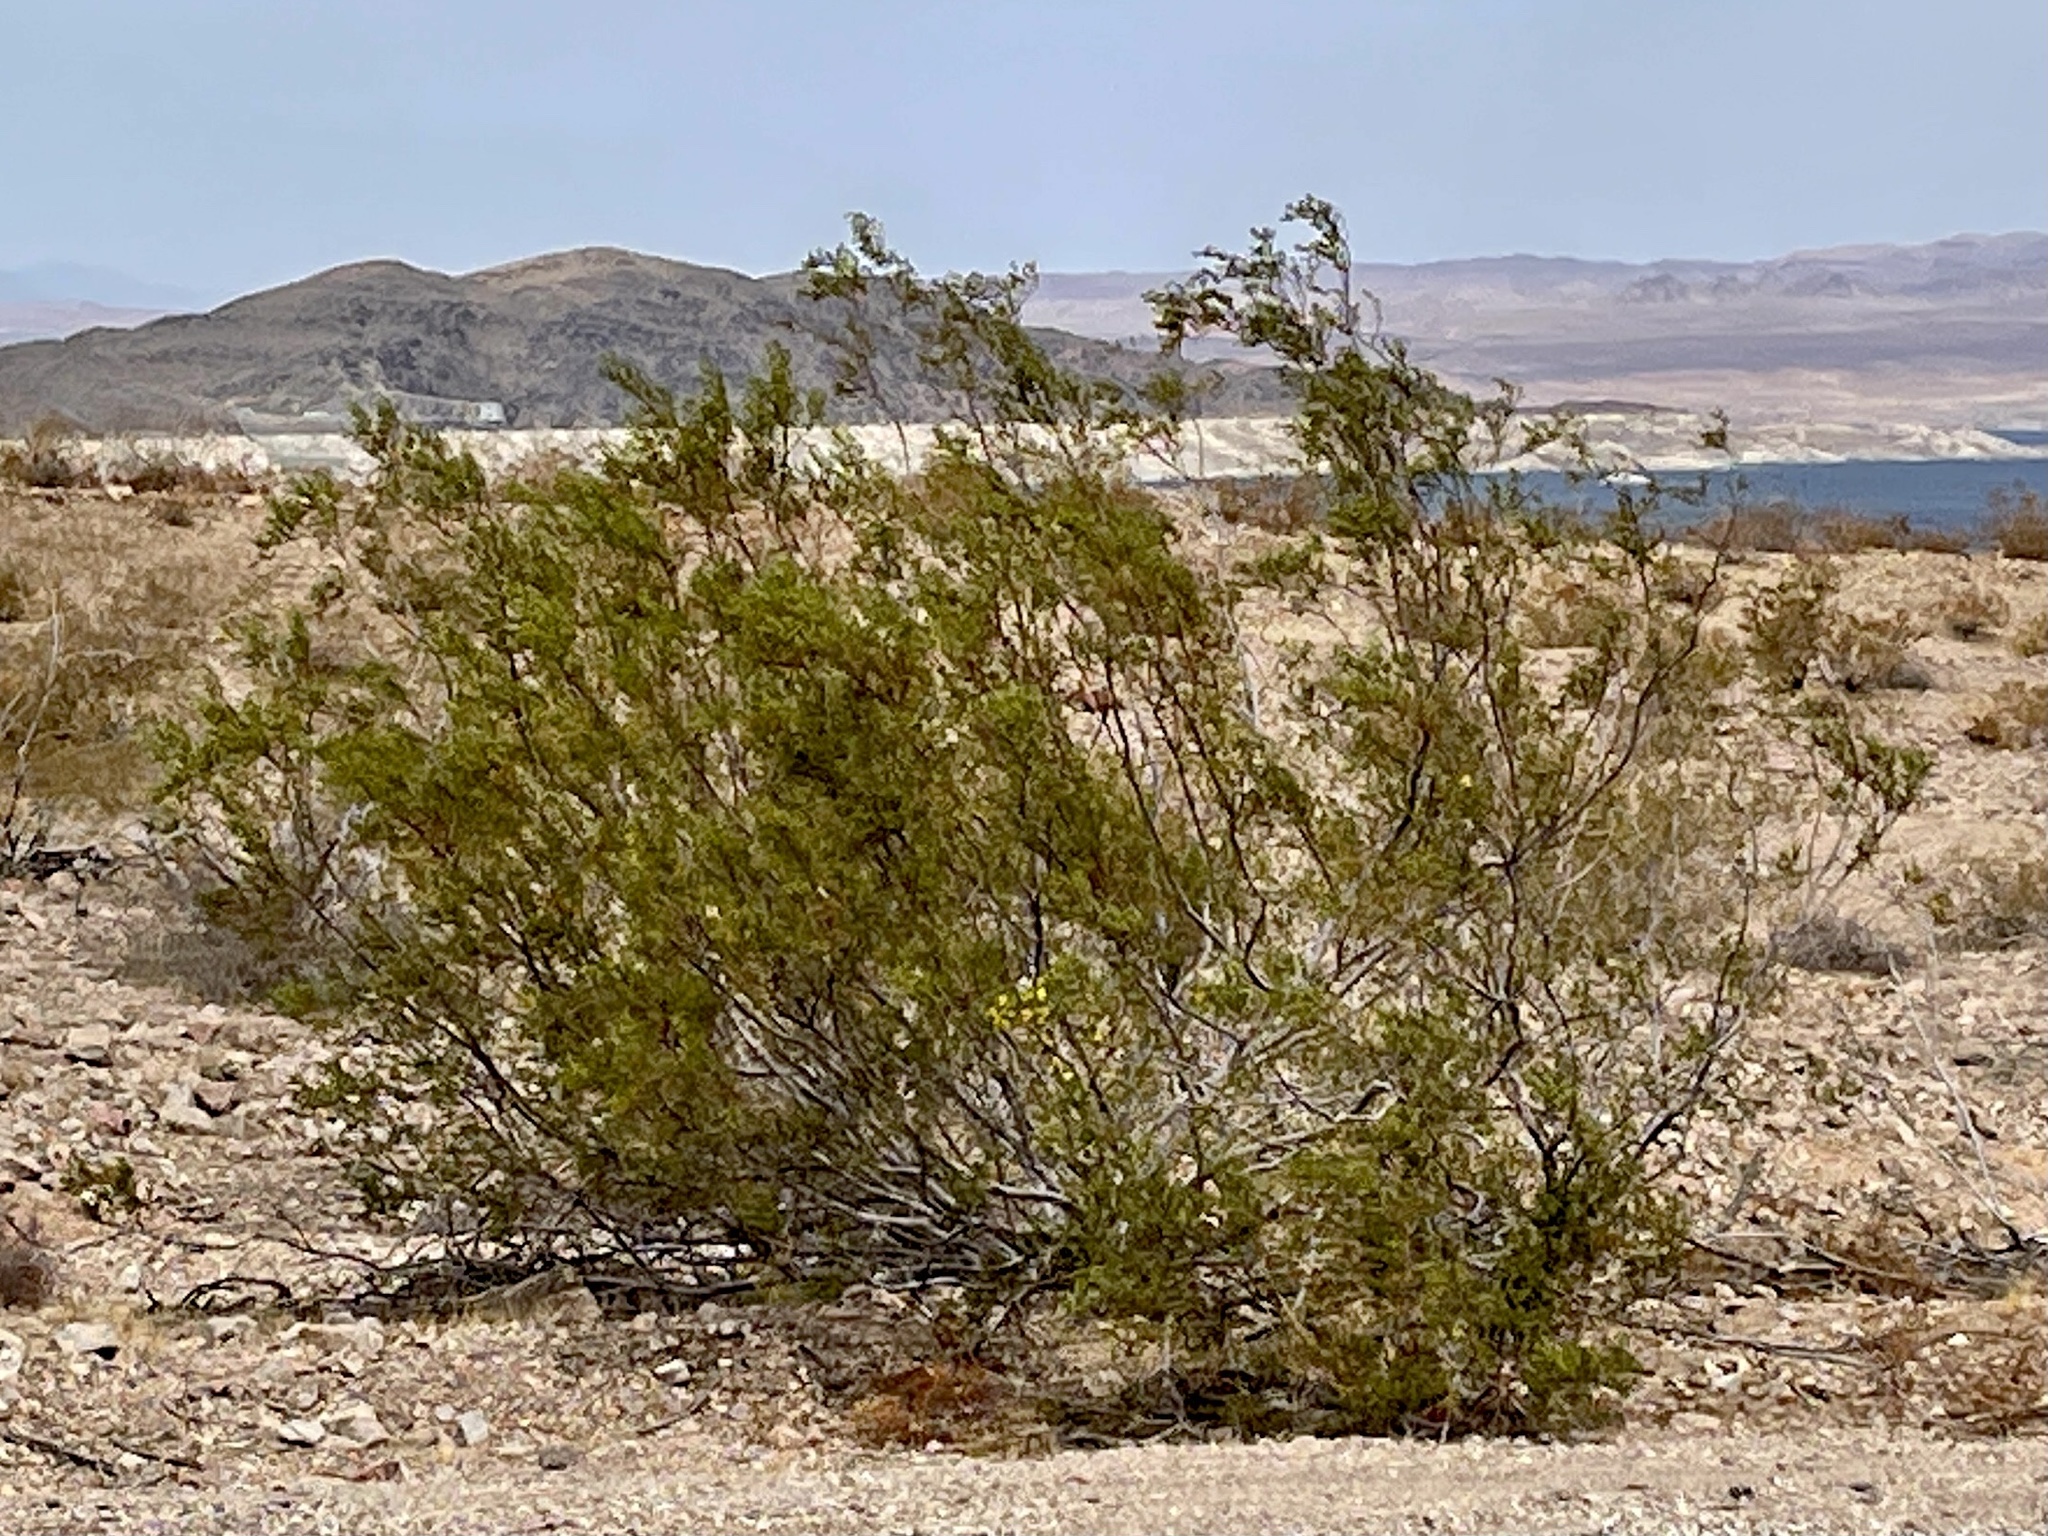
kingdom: Plantae
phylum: Tracheophyta
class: Magnoliopsida
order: Zygophyllales
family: Zygophyllaceae
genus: Larrea
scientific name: Larrea tridentata
